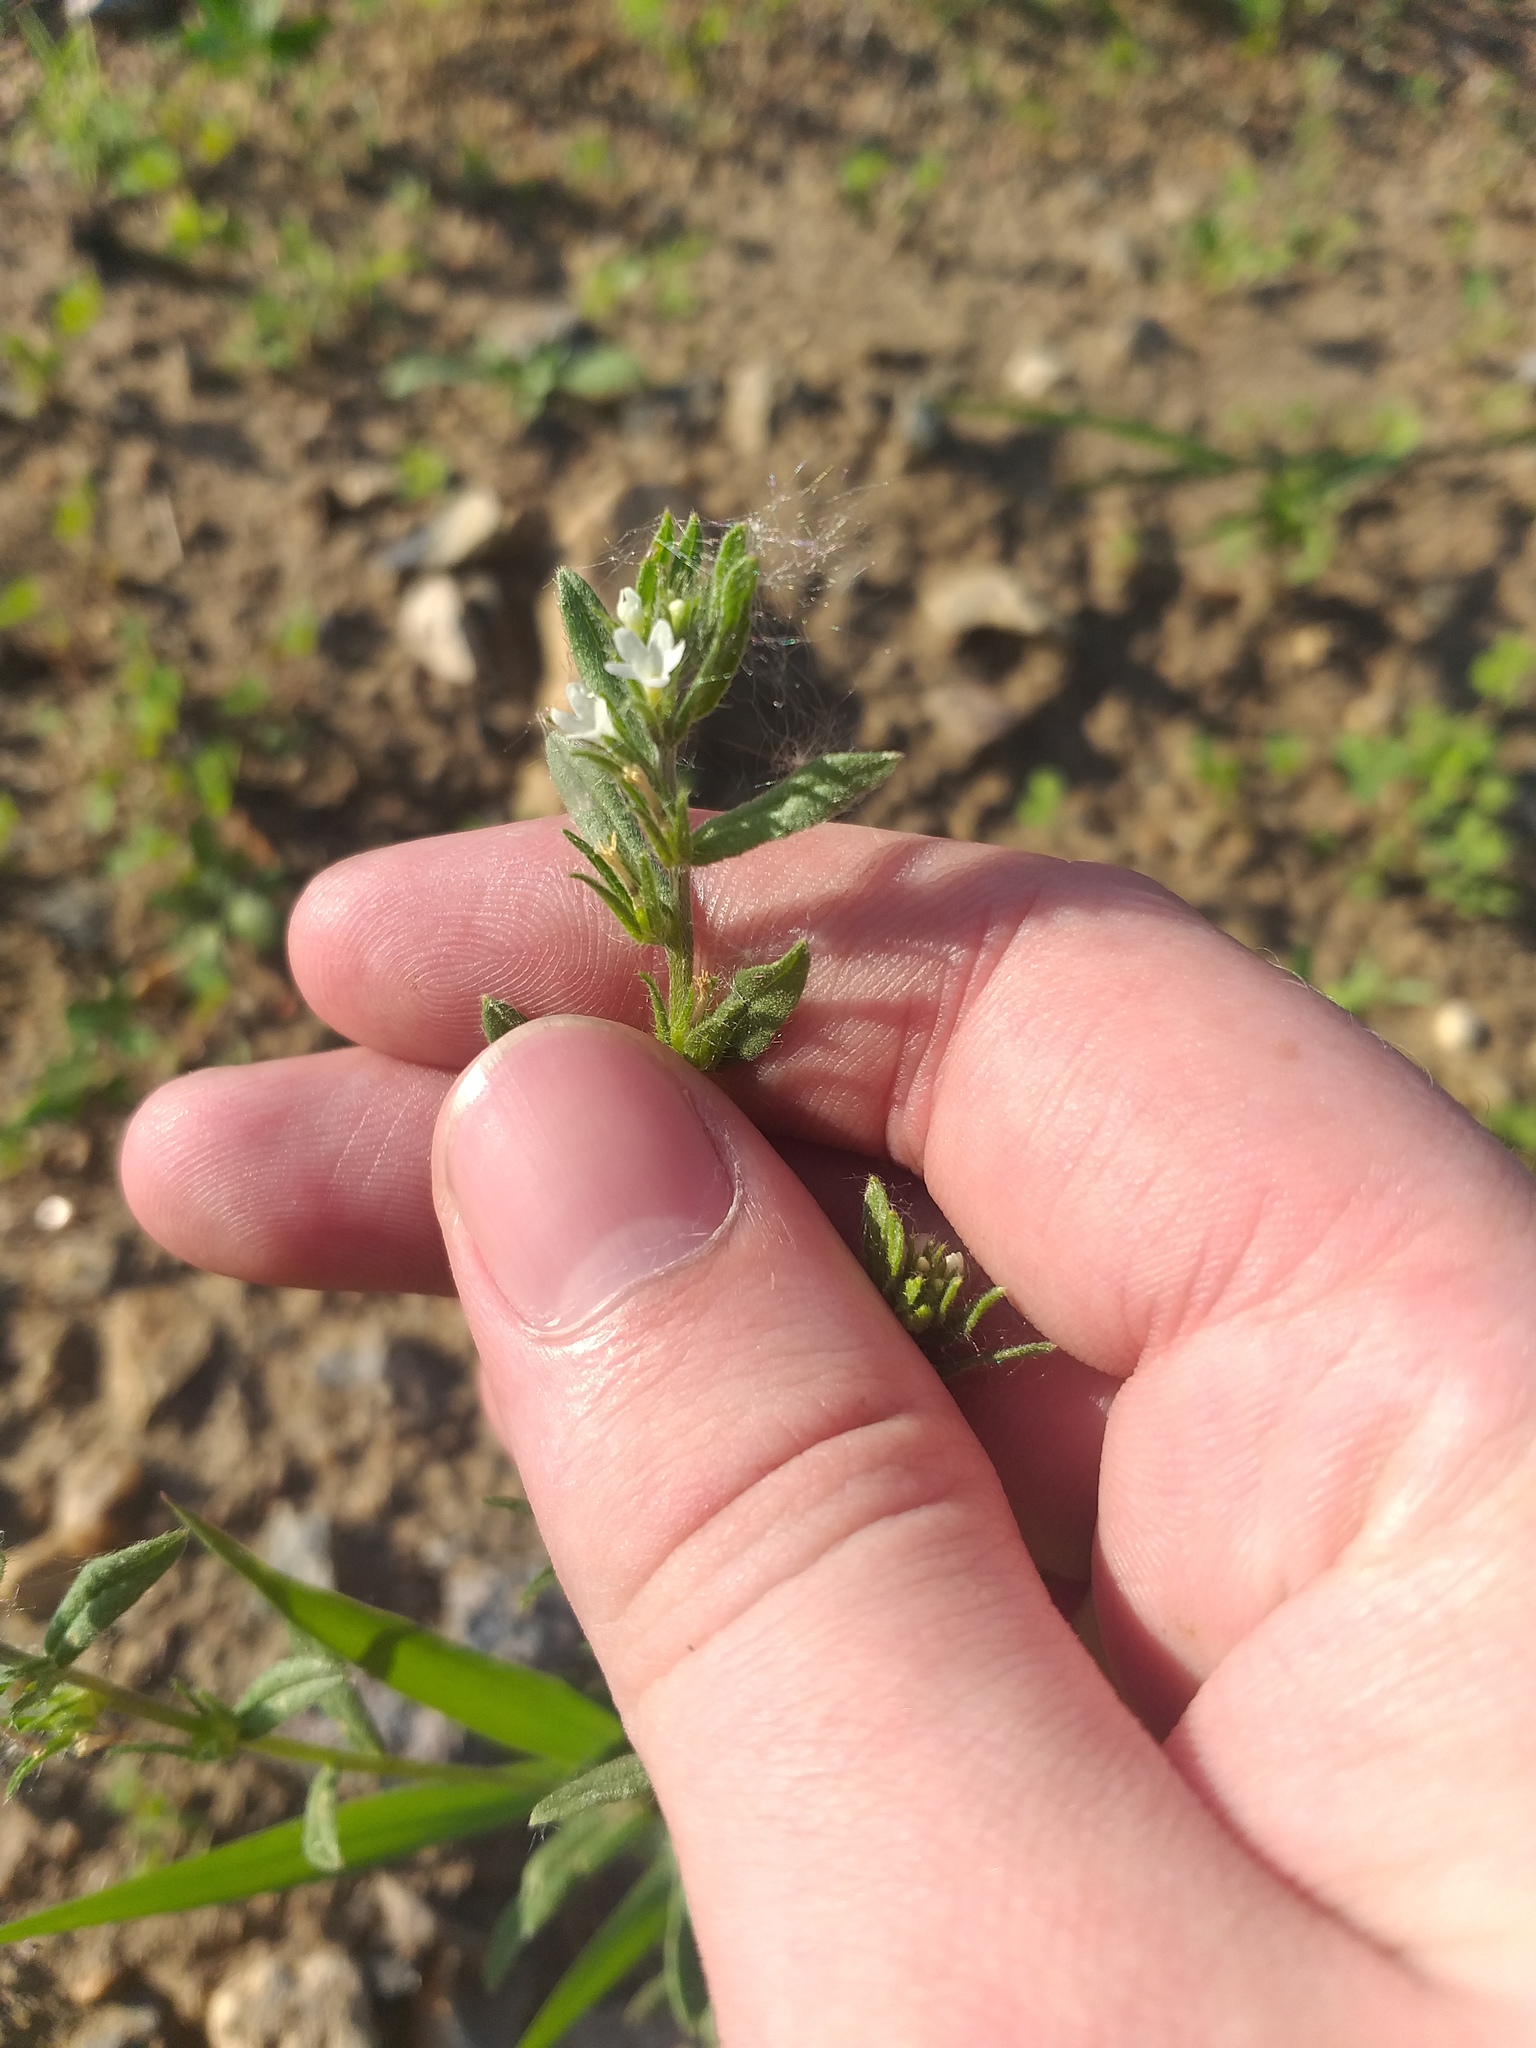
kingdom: Plantae
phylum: Tracheophyta
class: Magnoliopsida
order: Boraginales
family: Boraginaceae
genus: Buglossoides
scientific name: Buglossoides arvensis
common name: Corn gromwell
